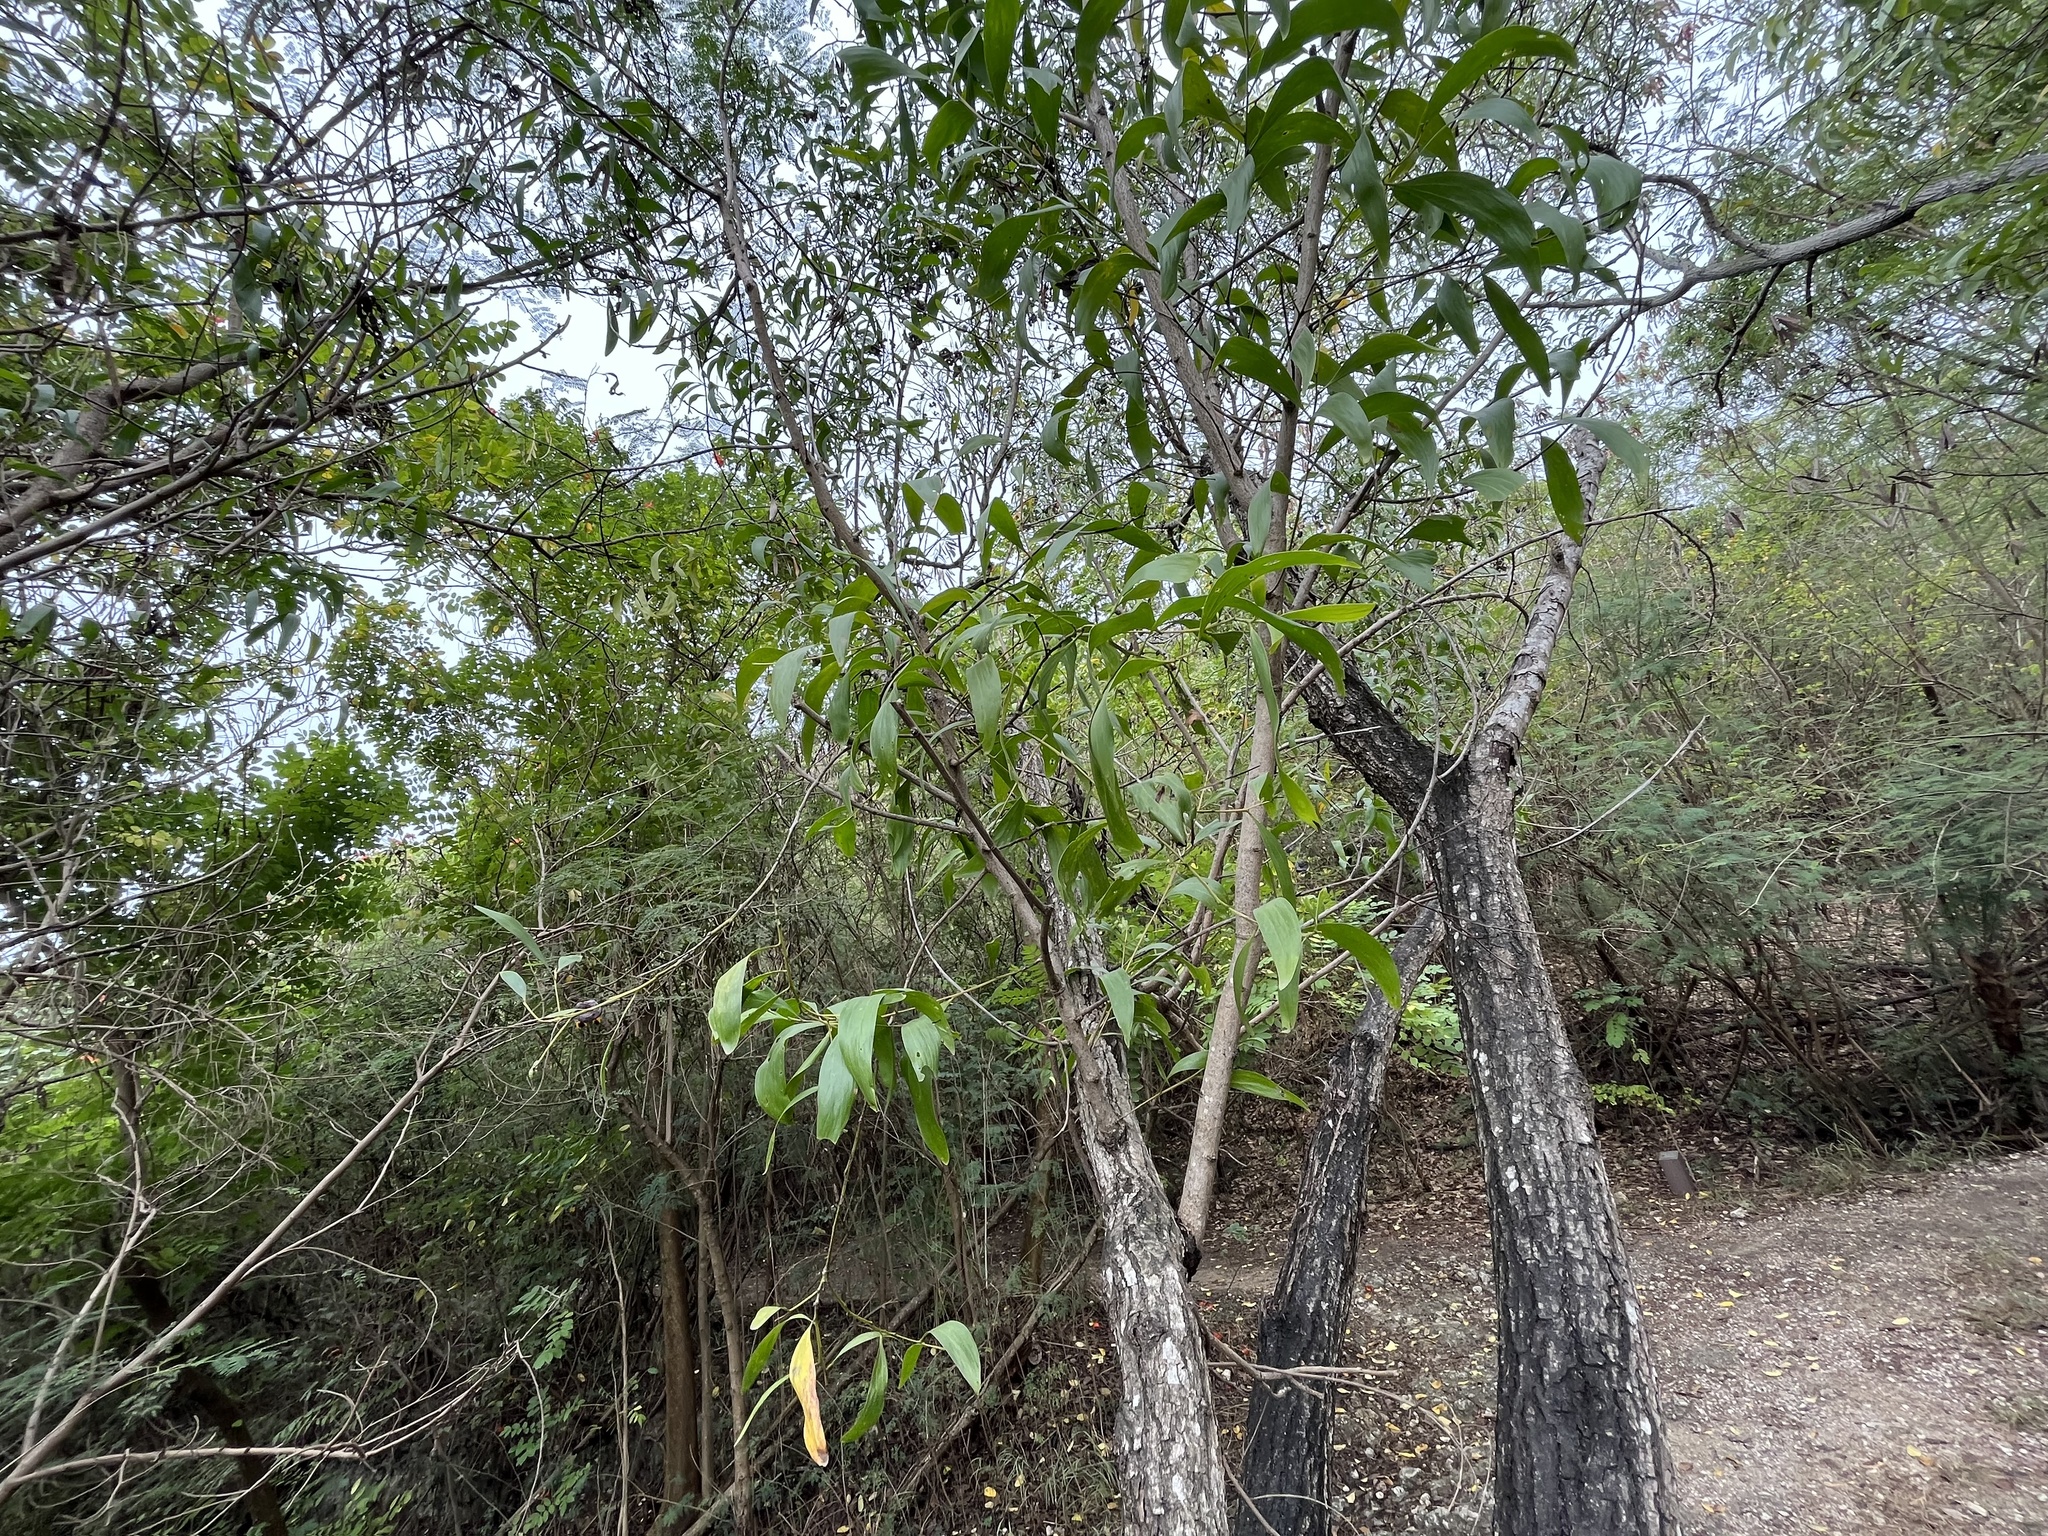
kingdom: Plantae
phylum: Tracheophyta
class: Magnoliopsida
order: Fabales
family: Fabaceae
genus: Acacia
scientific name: Acacia auriculiformis
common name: Earleaf acacia
